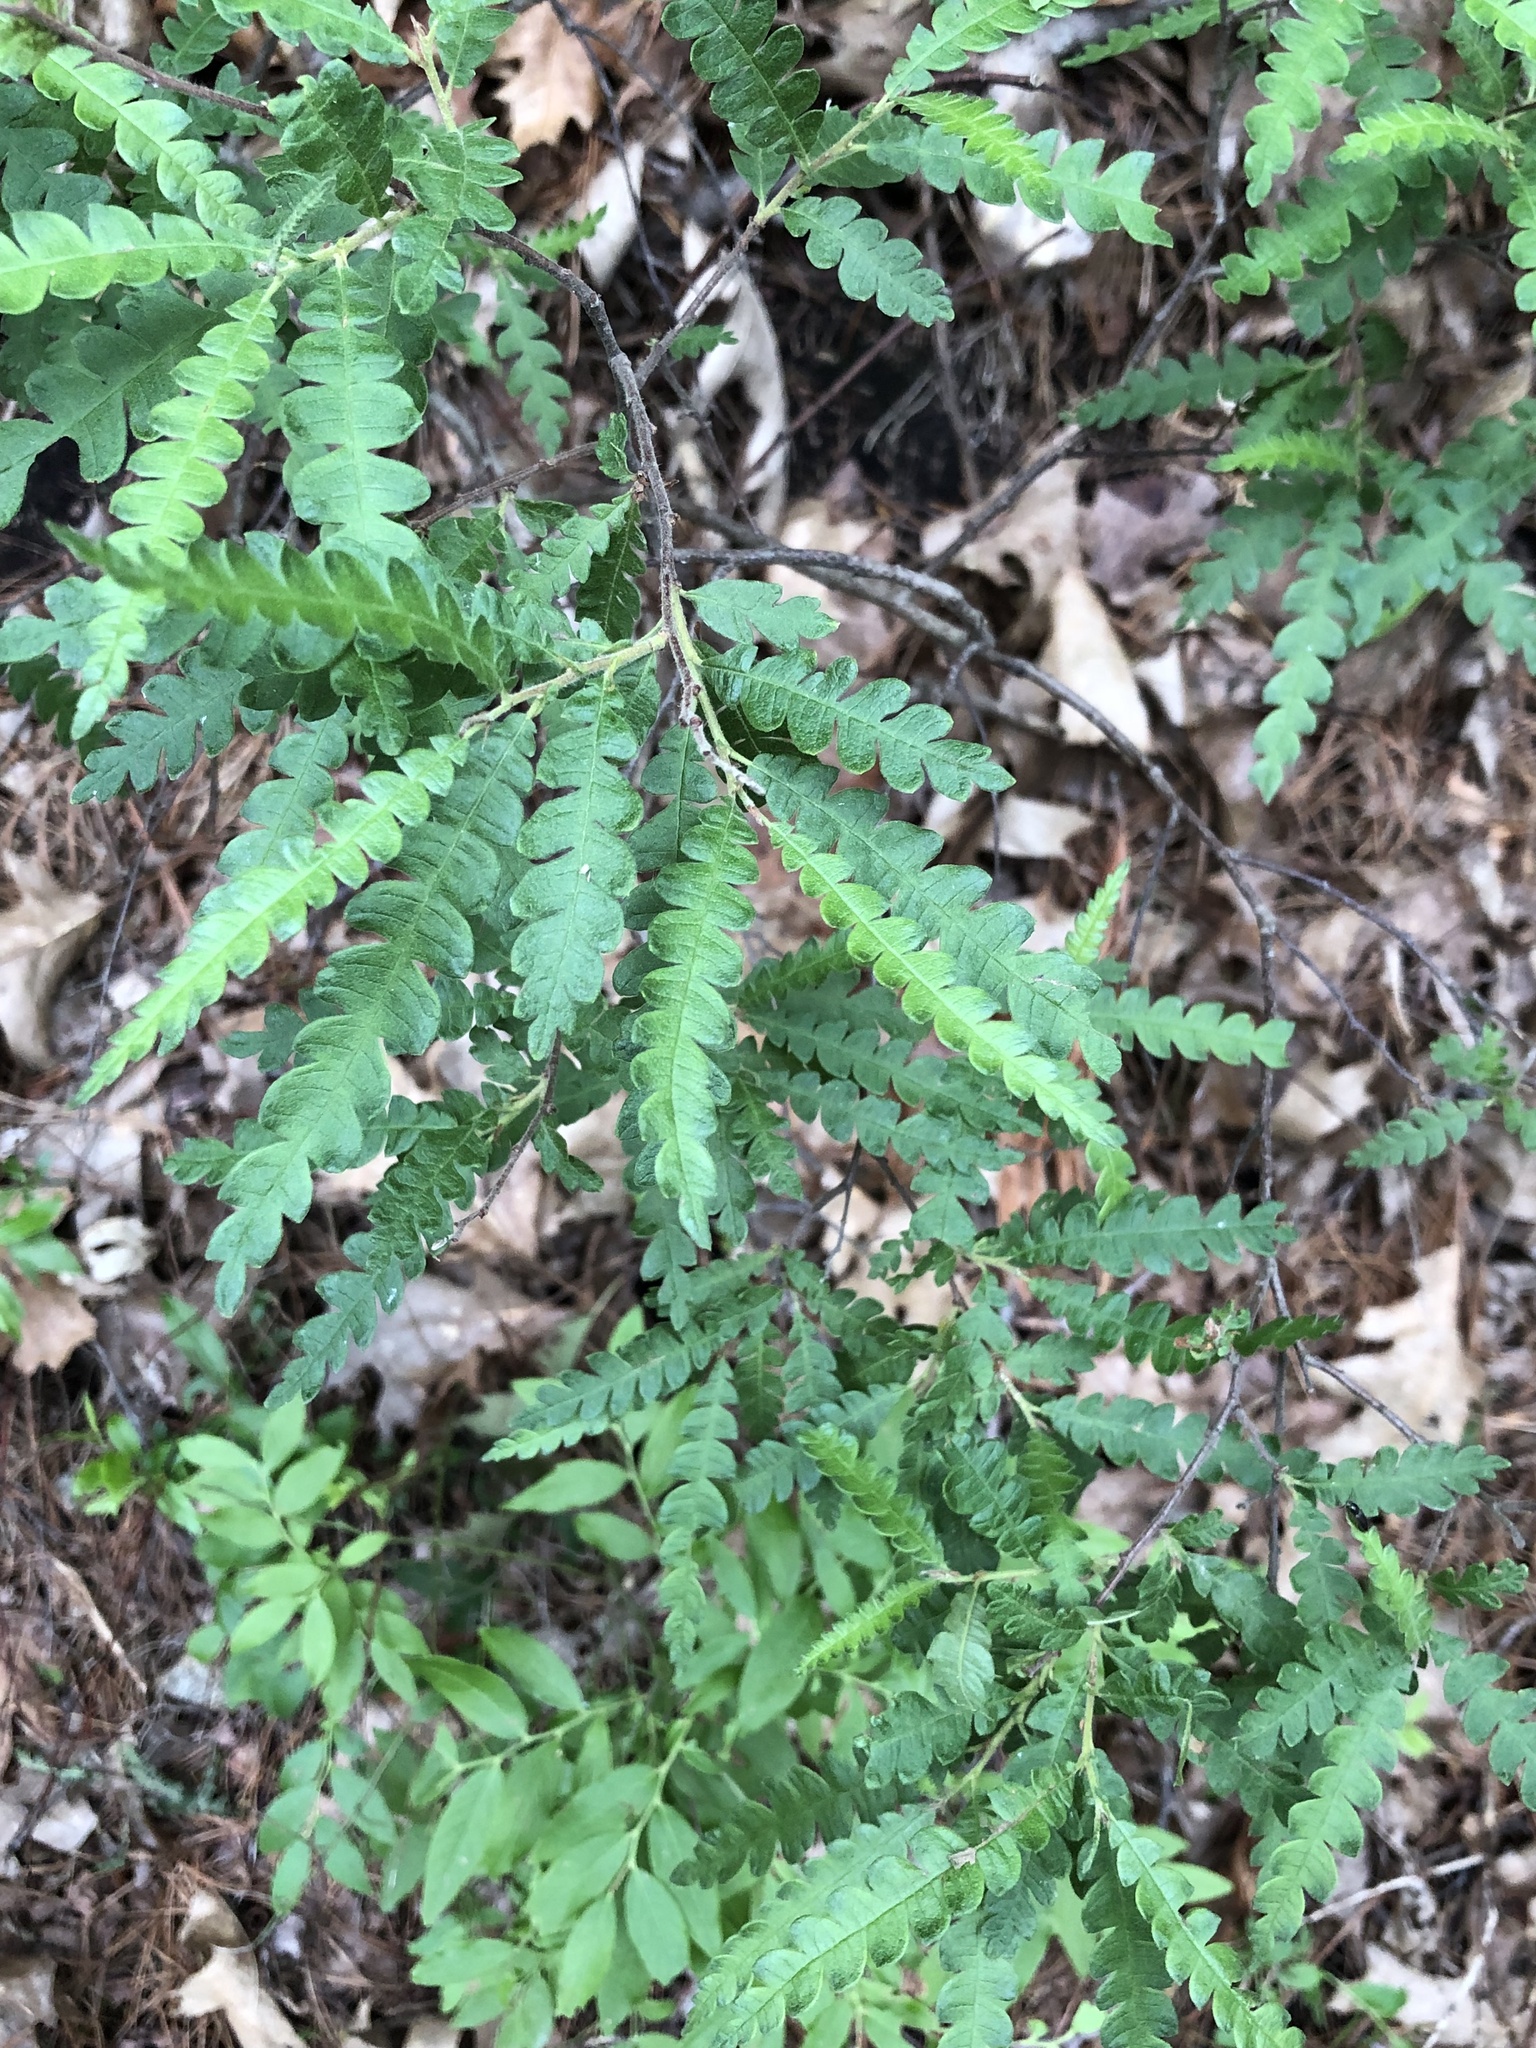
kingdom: Plantae
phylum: Tracheophyta
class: Magnoliopsida
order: Fagales
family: Myricaceae
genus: Comptonia
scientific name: Comptonia peregrina
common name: Sweet-fern
